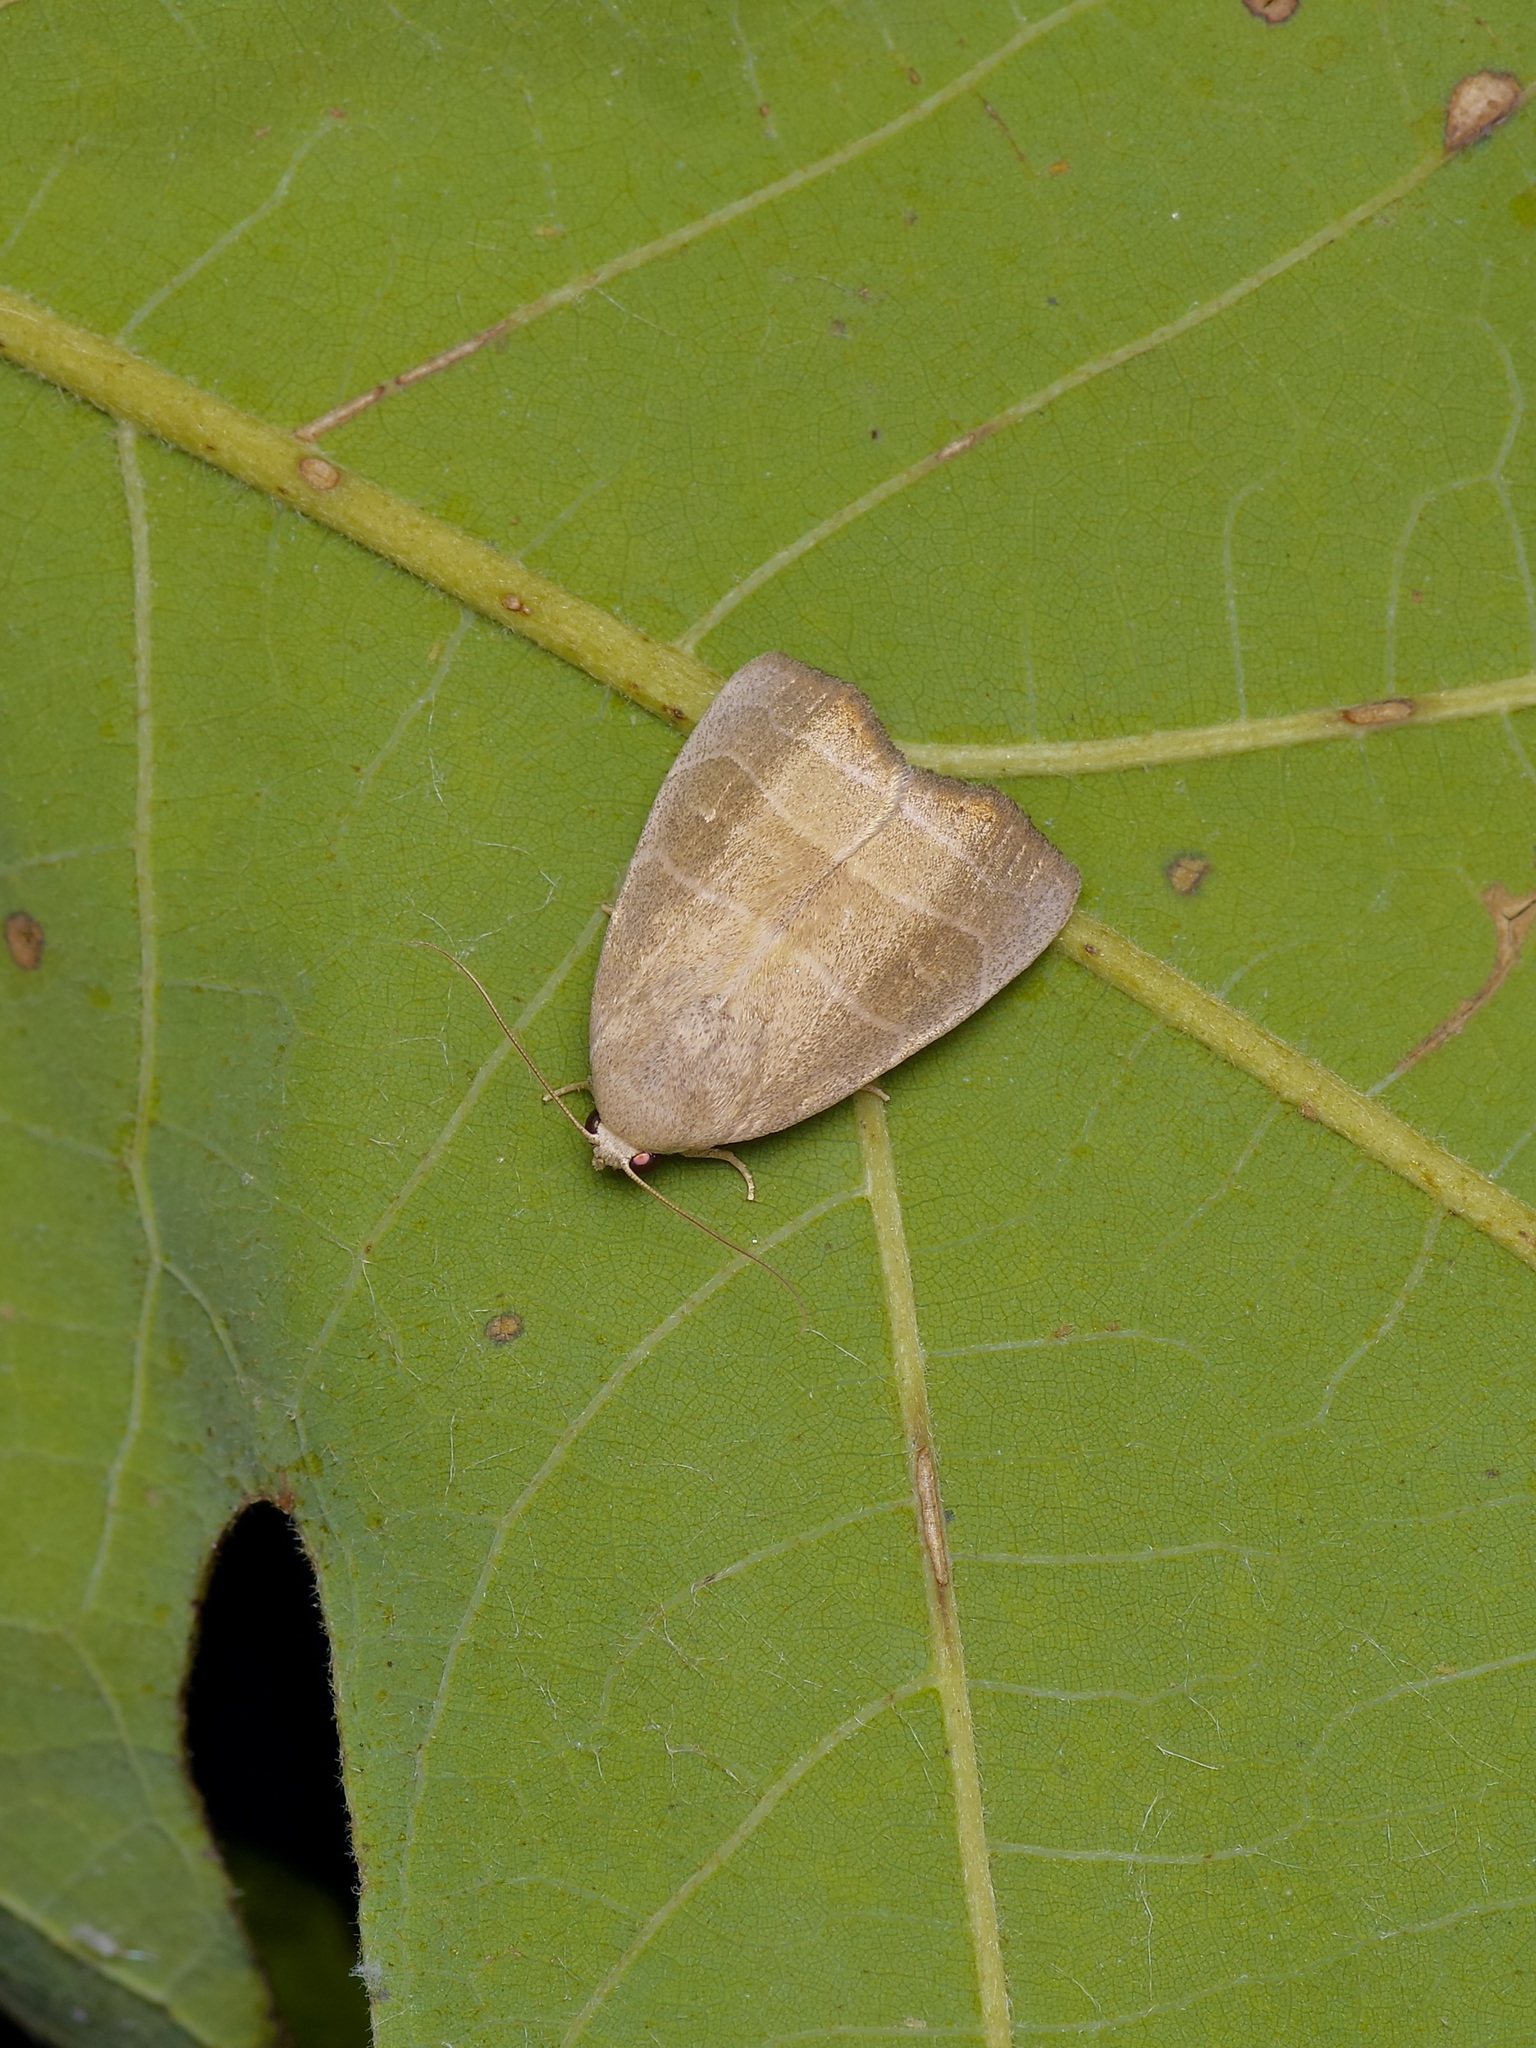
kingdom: Animalia
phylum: Arthropoda
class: Insecta
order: Lepidoptera
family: Noctuidae
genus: Bagisara
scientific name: Bagisara rectifascia
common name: Straight lined mallow moth
